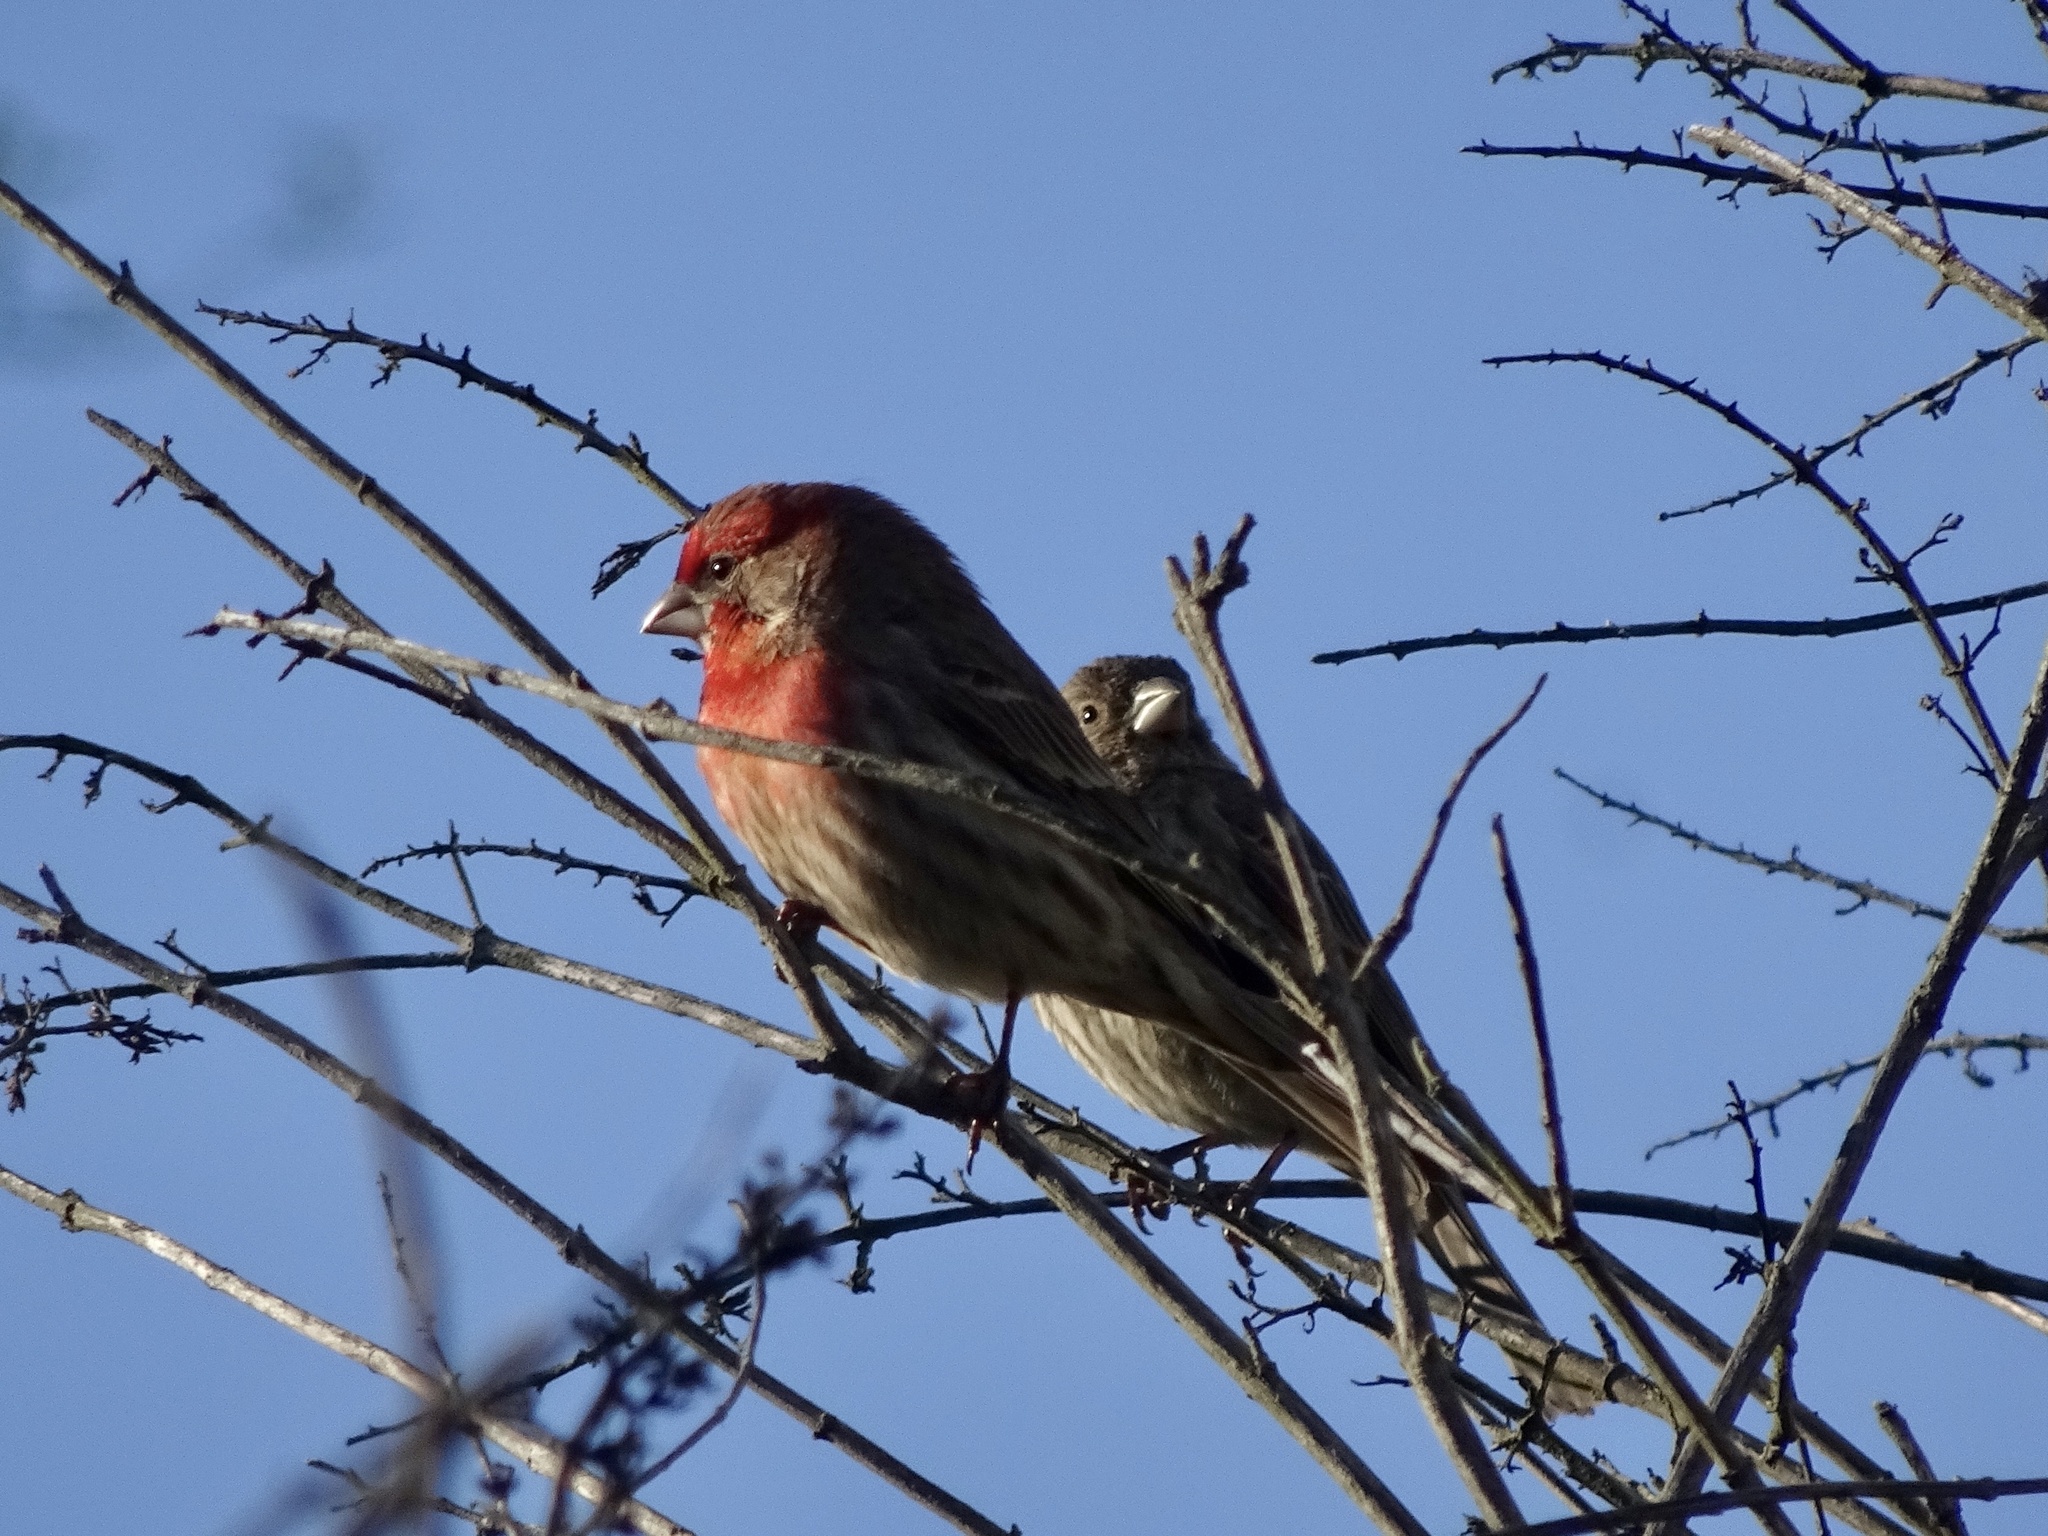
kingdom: Animalia
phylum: Chordata
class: Aves
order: Passeriformes
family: Fringillidae
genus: Haemorhous
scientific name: Haemorhous mexicanus
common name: House finch
